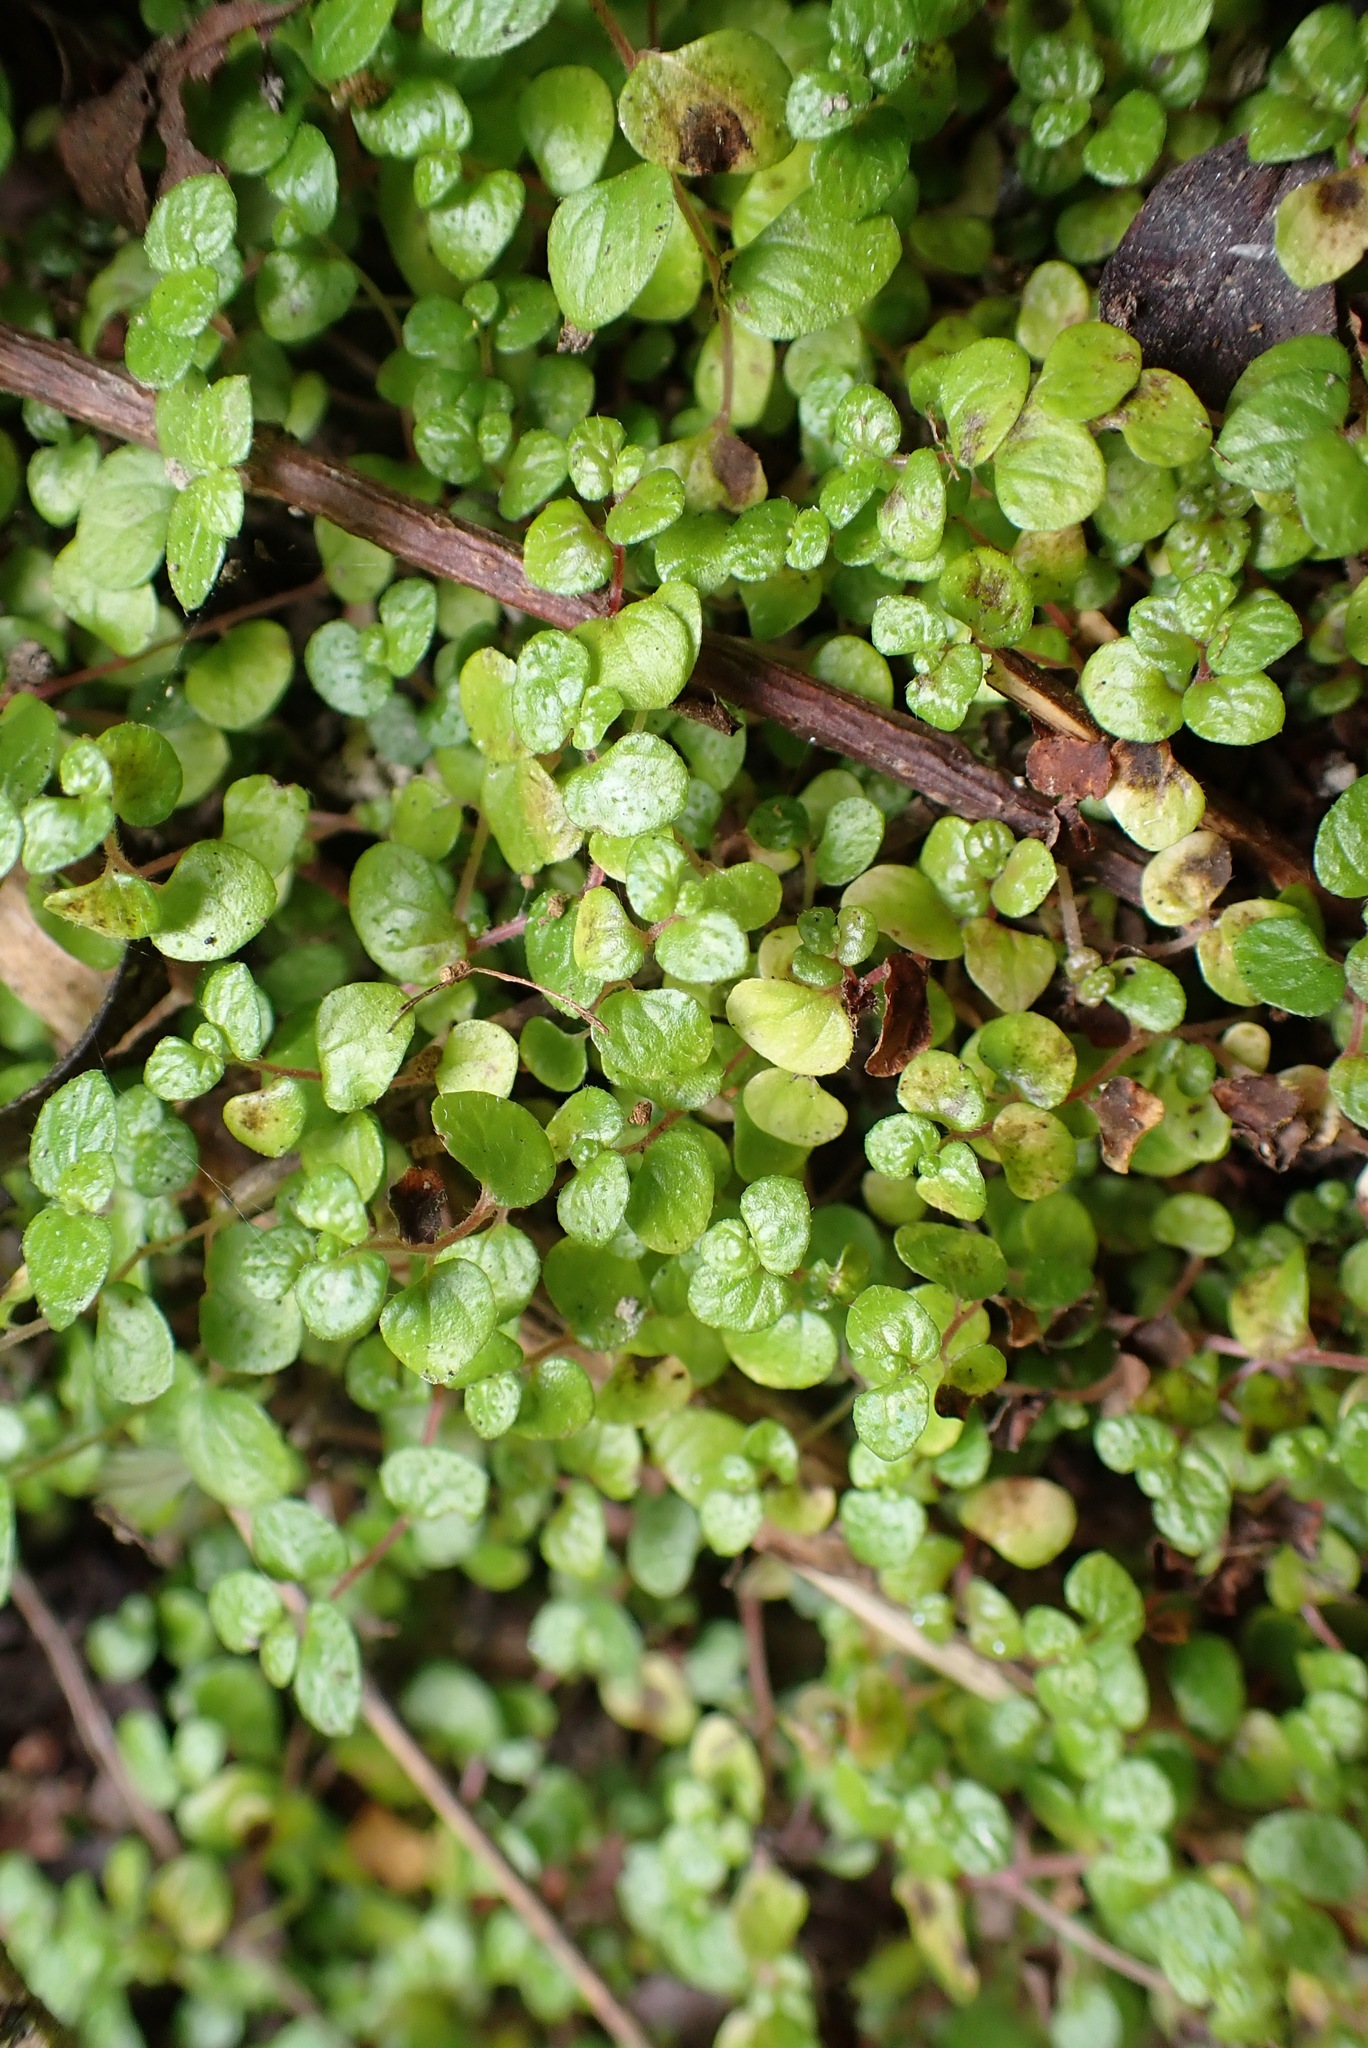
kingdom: Plantae
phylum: Tracheophyta
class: Magnoliopsida
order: Rosales
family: Urticaceae
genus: Soleirolia
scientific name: Soleirolia soleirolii
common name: Mind-your-own-business
